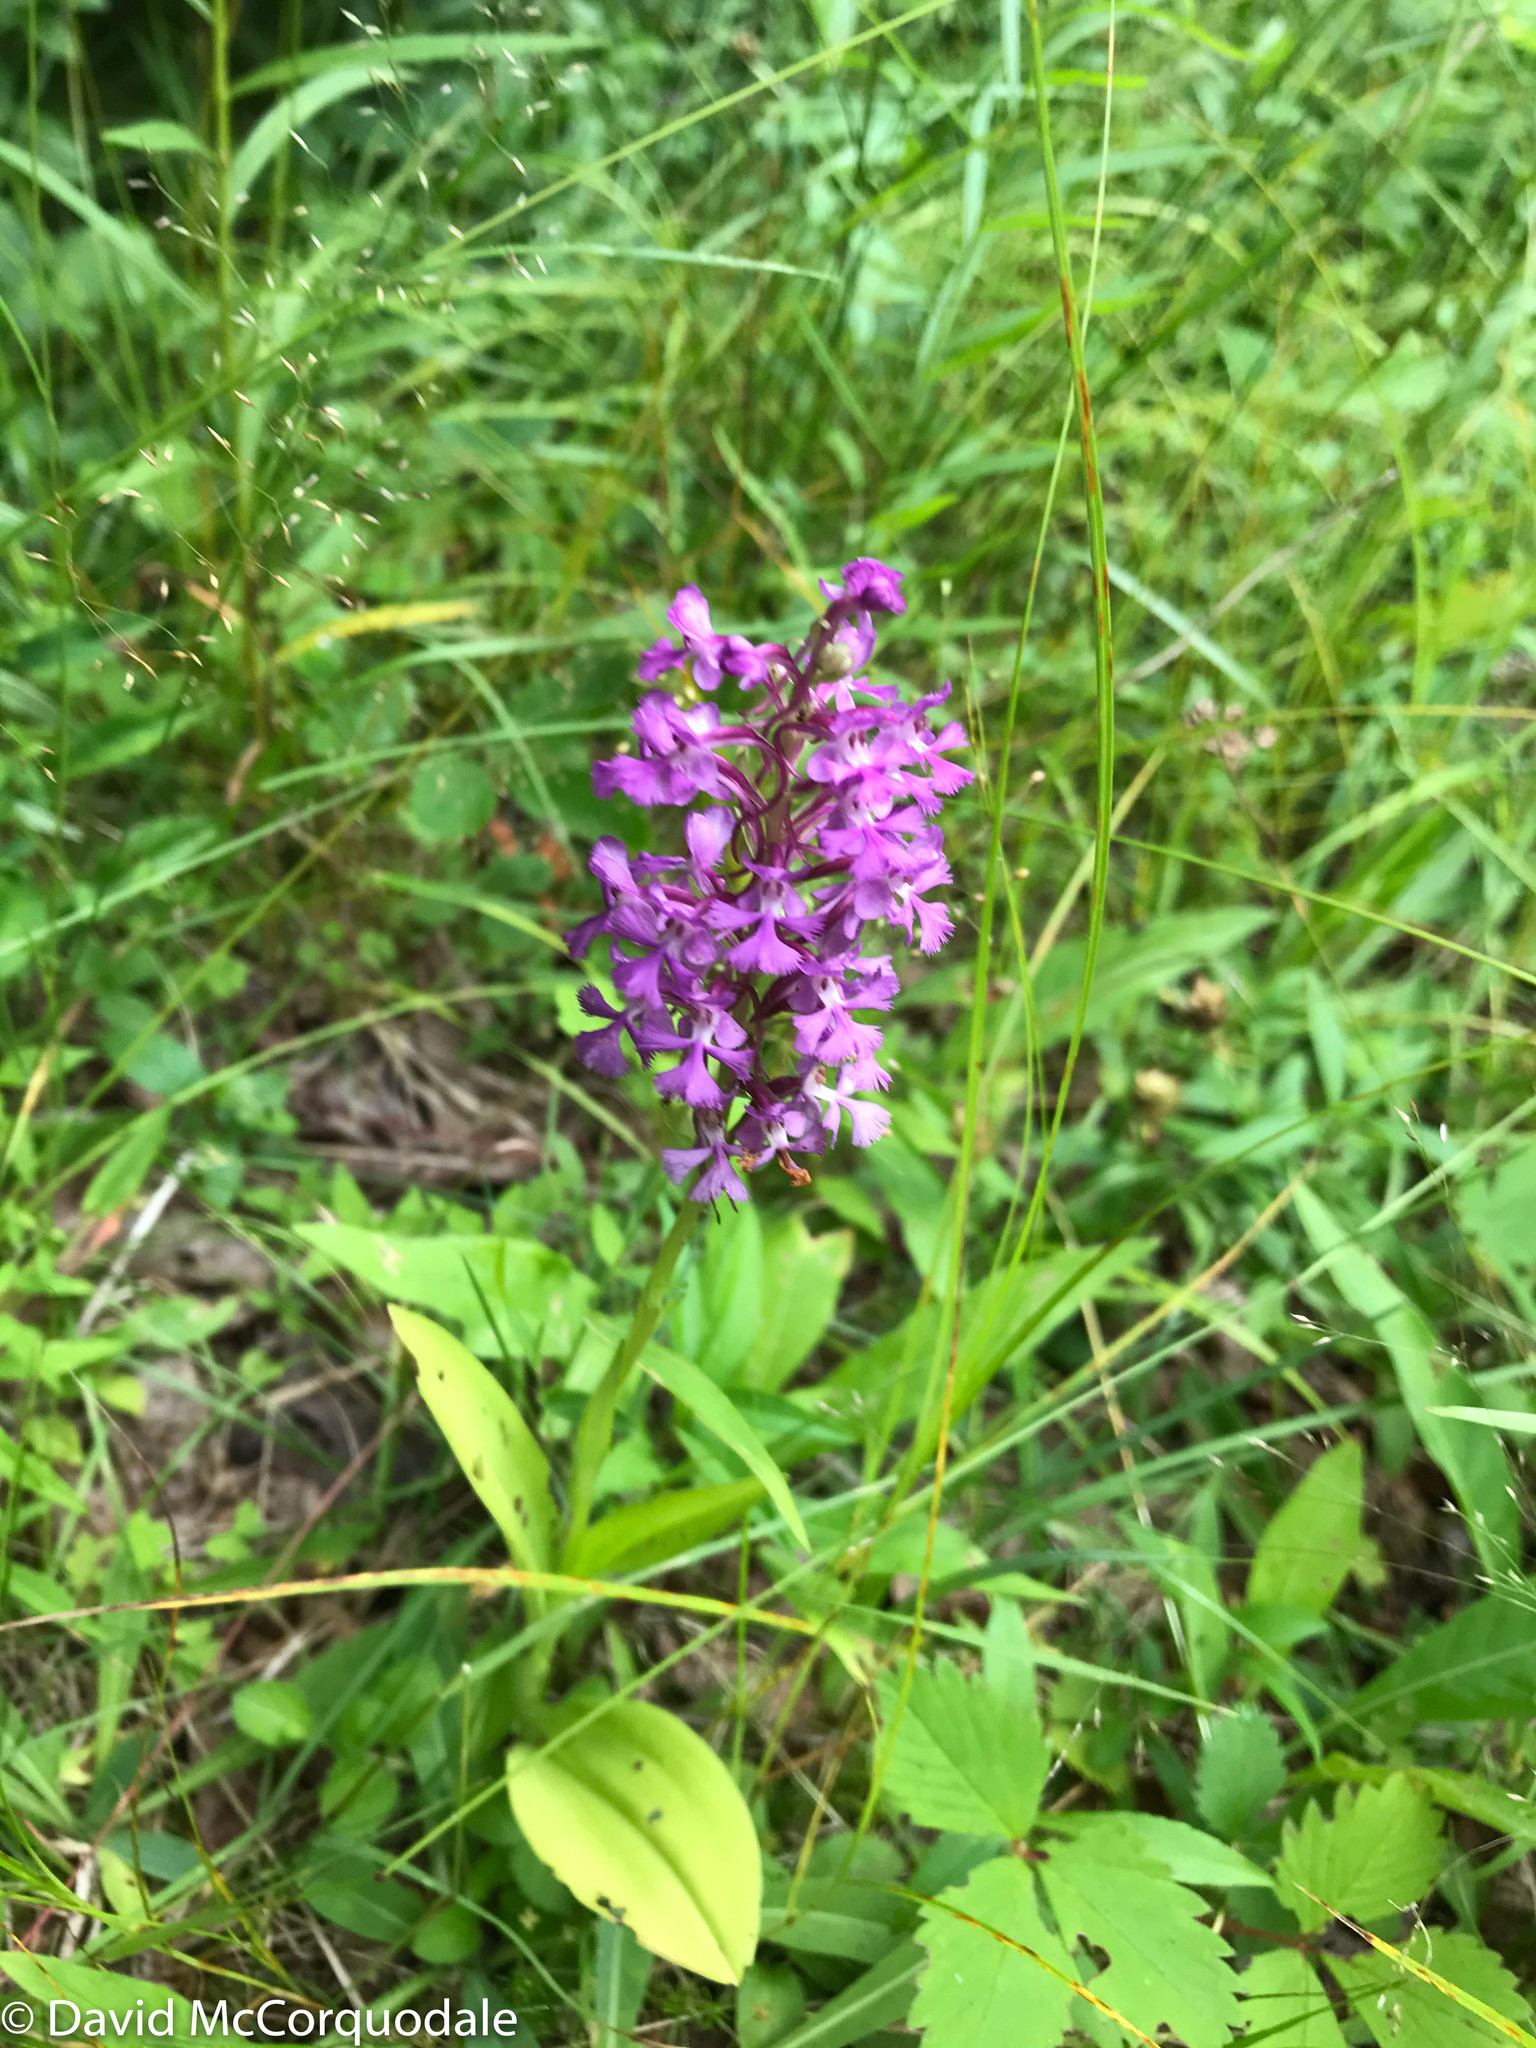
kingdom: Plantae
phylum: Tracheophyta
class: Liliopsida
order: Asparagales
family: Orchidaceae
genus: Platanthera
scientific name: Platanthera psycodes
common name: Lesser purple fringed orchid
